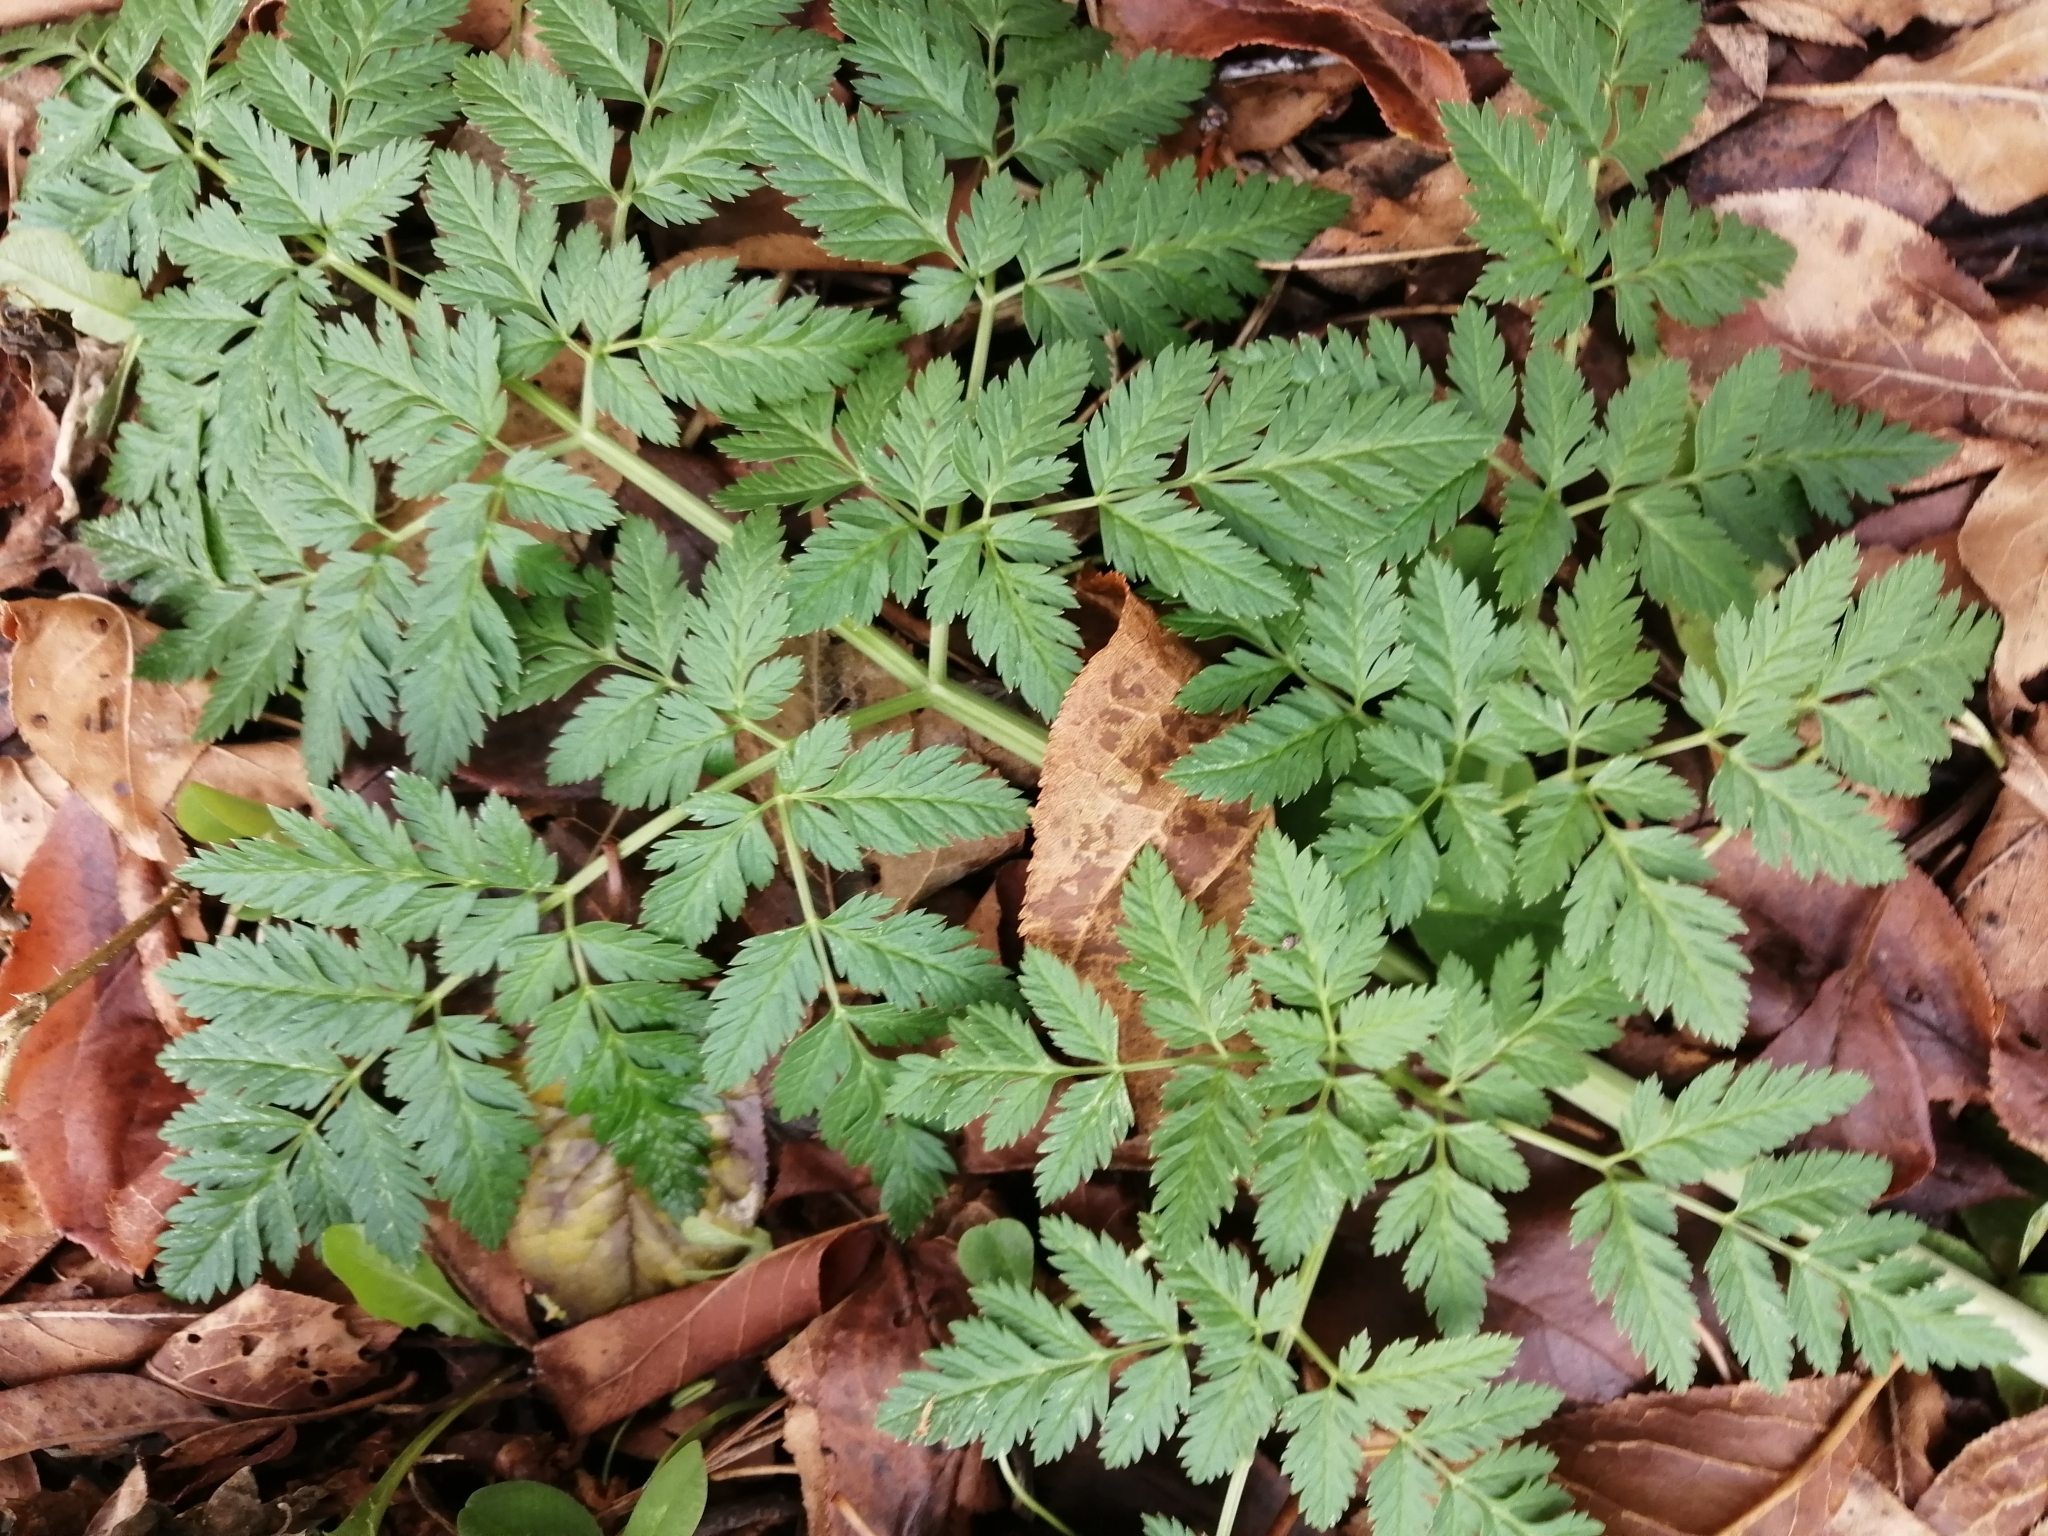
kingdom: Plantae
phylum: Tracheophyta
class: Magnoliopsida
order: Apiales
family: Apiaceae
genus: Anthriscus
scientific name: Anthriscus sylvestris
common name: Cow parsley
